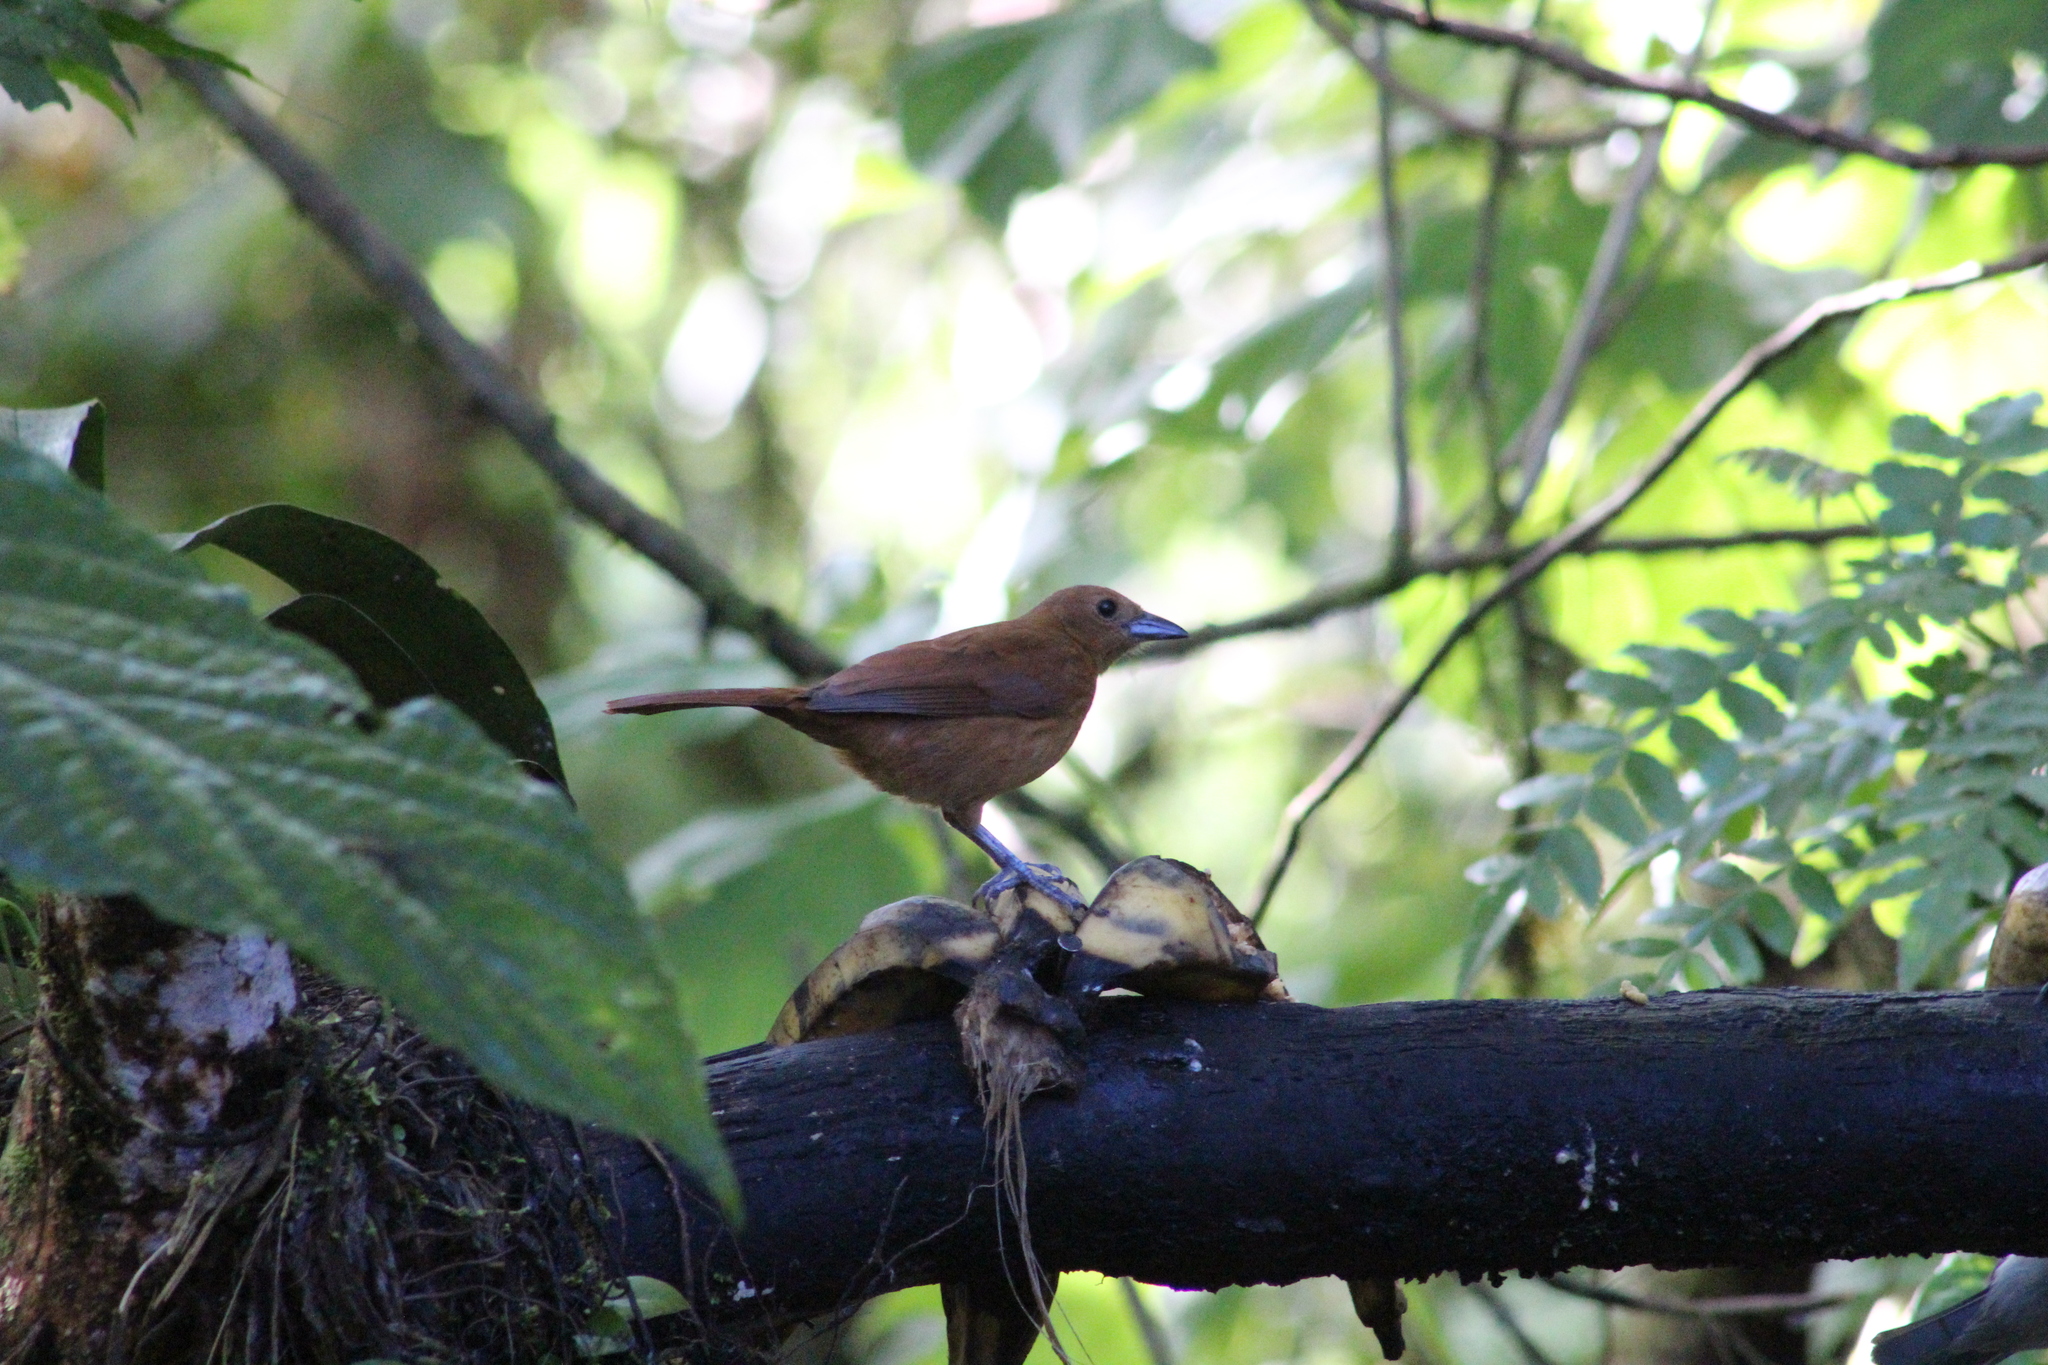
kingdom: Animalia
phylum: Chordata
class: Aves
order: Passeriformes
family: Thraupidae
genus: Tachyphonus
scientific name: Tachyphonus rufus
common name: White-lined tanager
